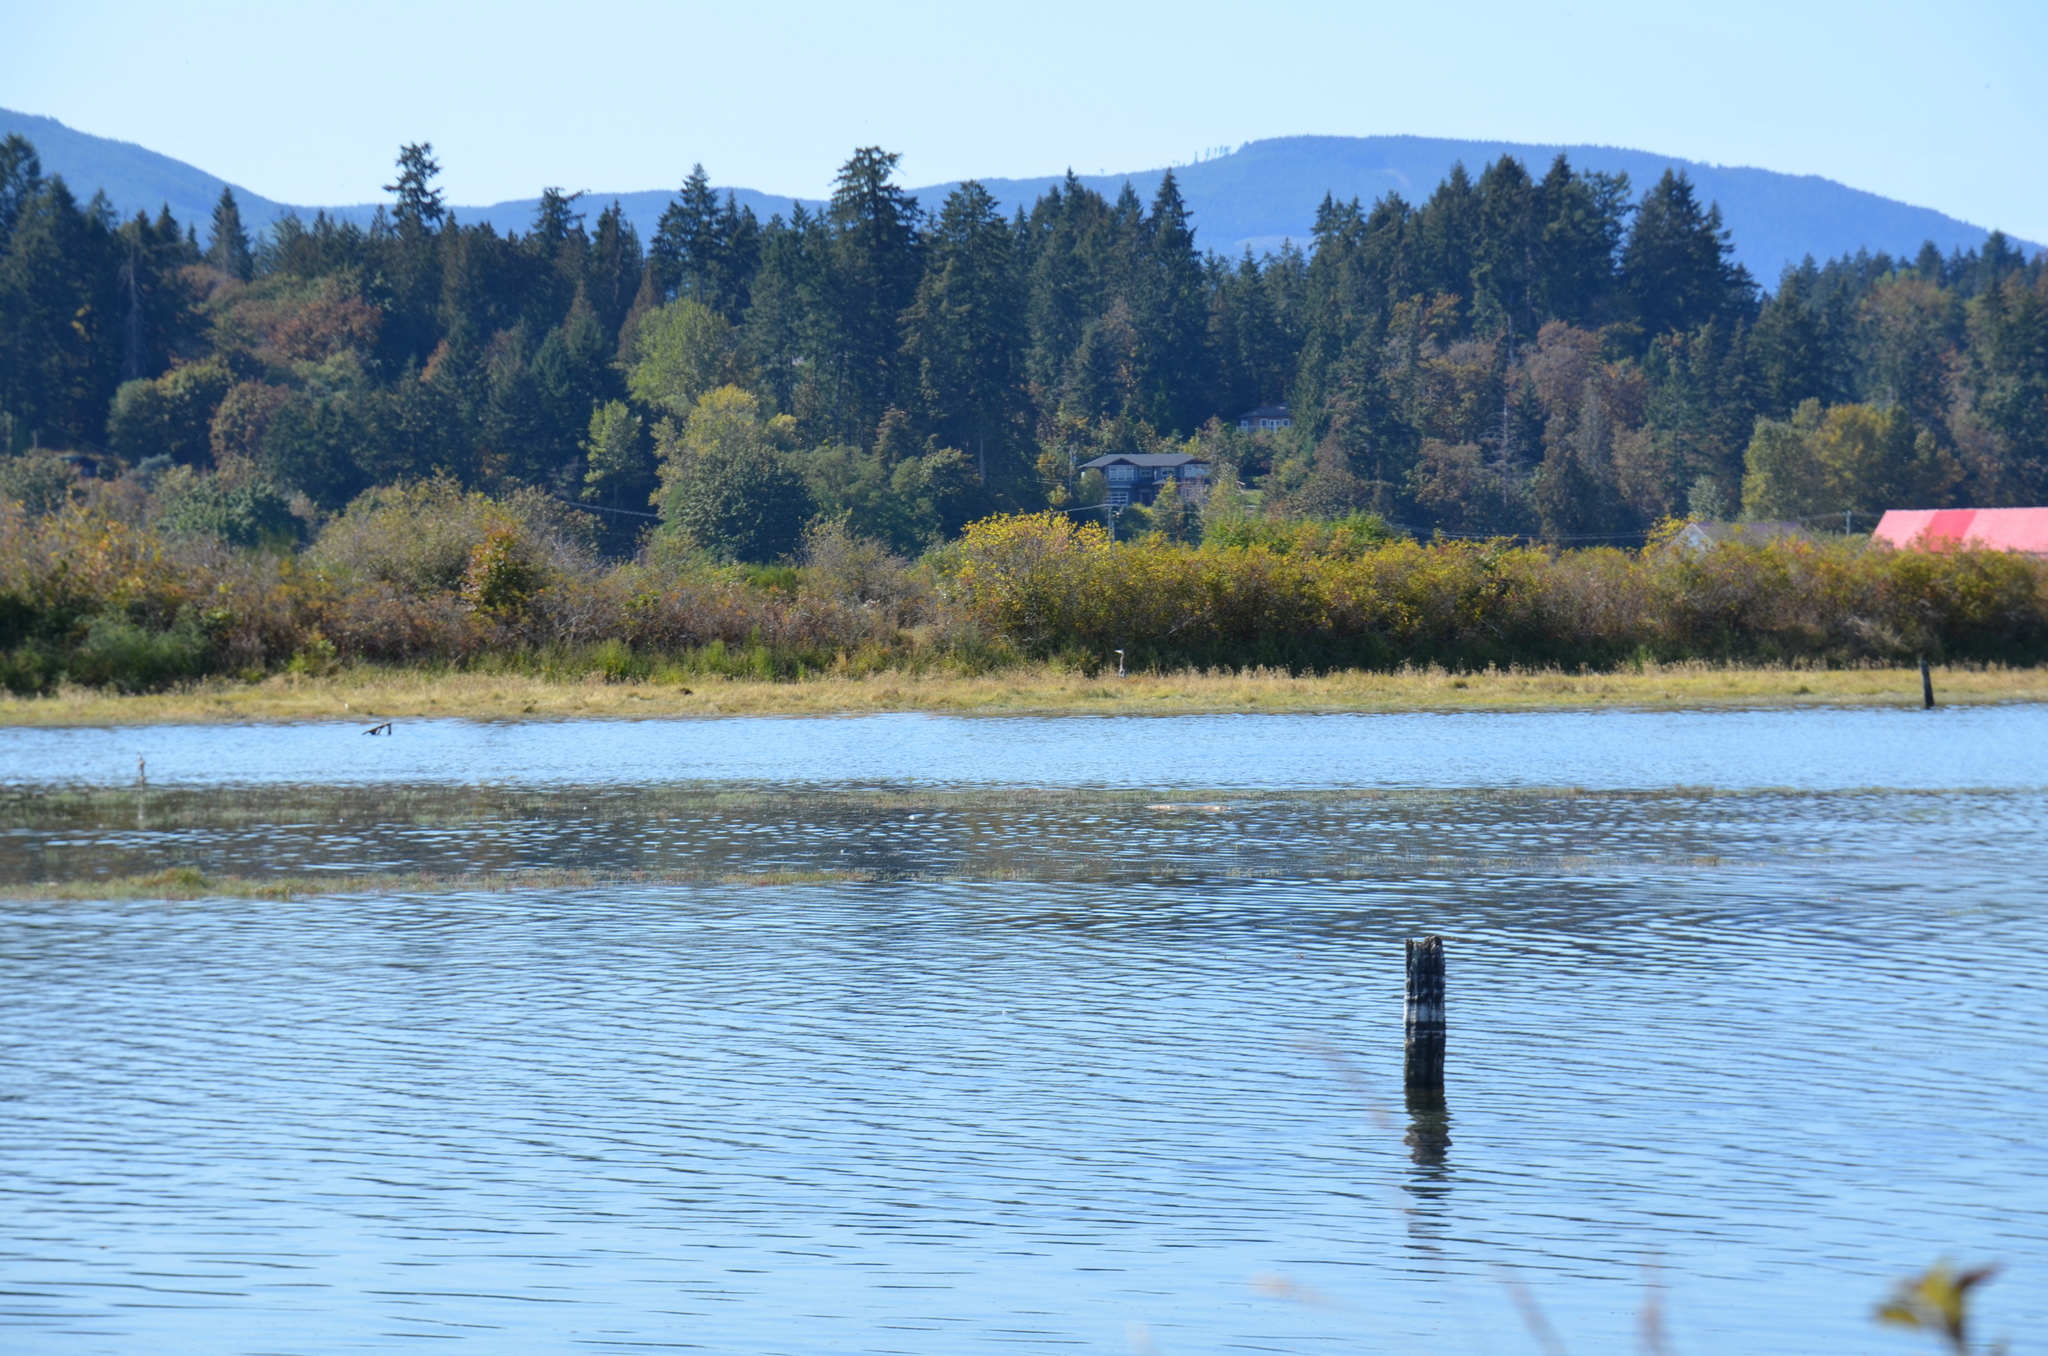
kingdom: Animalia
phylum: Chordata
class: Aves
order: Pelecaniformes
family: Ardeidae
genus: Ardea
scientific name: Ardea herodias
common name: Great blue heron
